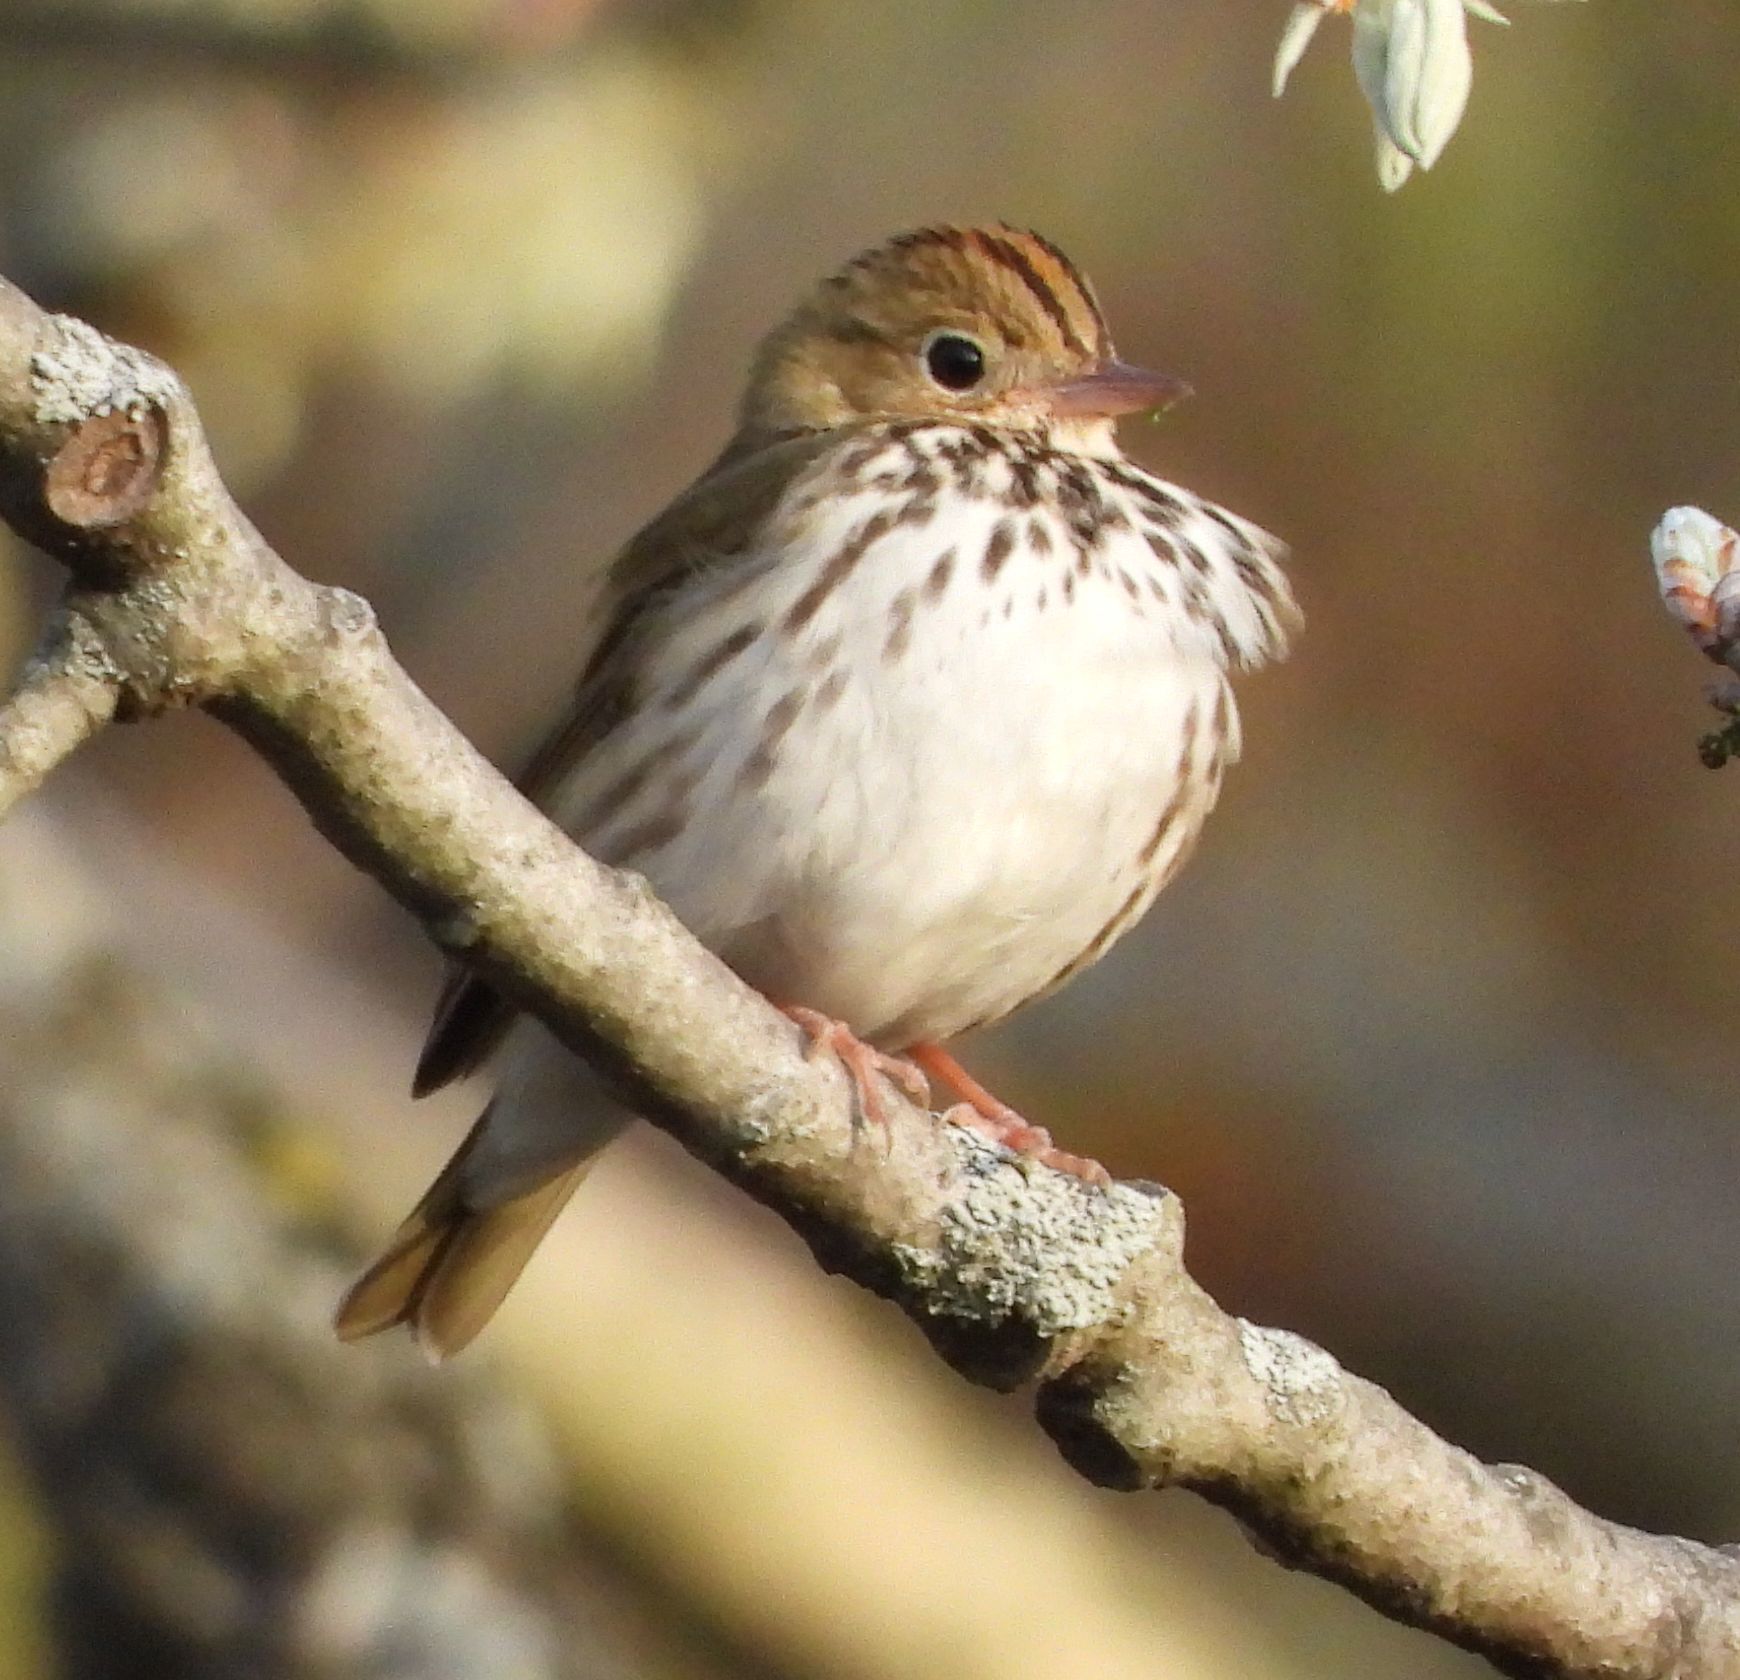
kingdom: Animalia
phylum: Chordata
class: Aves
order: Passeriformes
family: Parulidae
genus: Seiurus
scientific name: Seiurus aurocapilla
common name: Ovenbird
